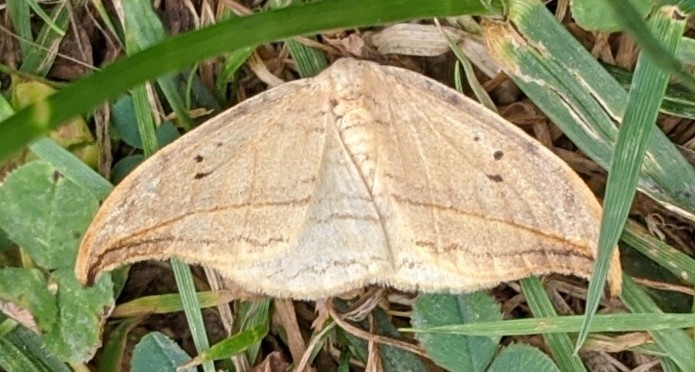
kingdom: Animalia
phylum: Arthropoda
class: Insecta
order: Lepidoptera
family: Drepanidae
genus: Drepana
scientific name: Drepana arcuata
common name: Arched hooktip moth
